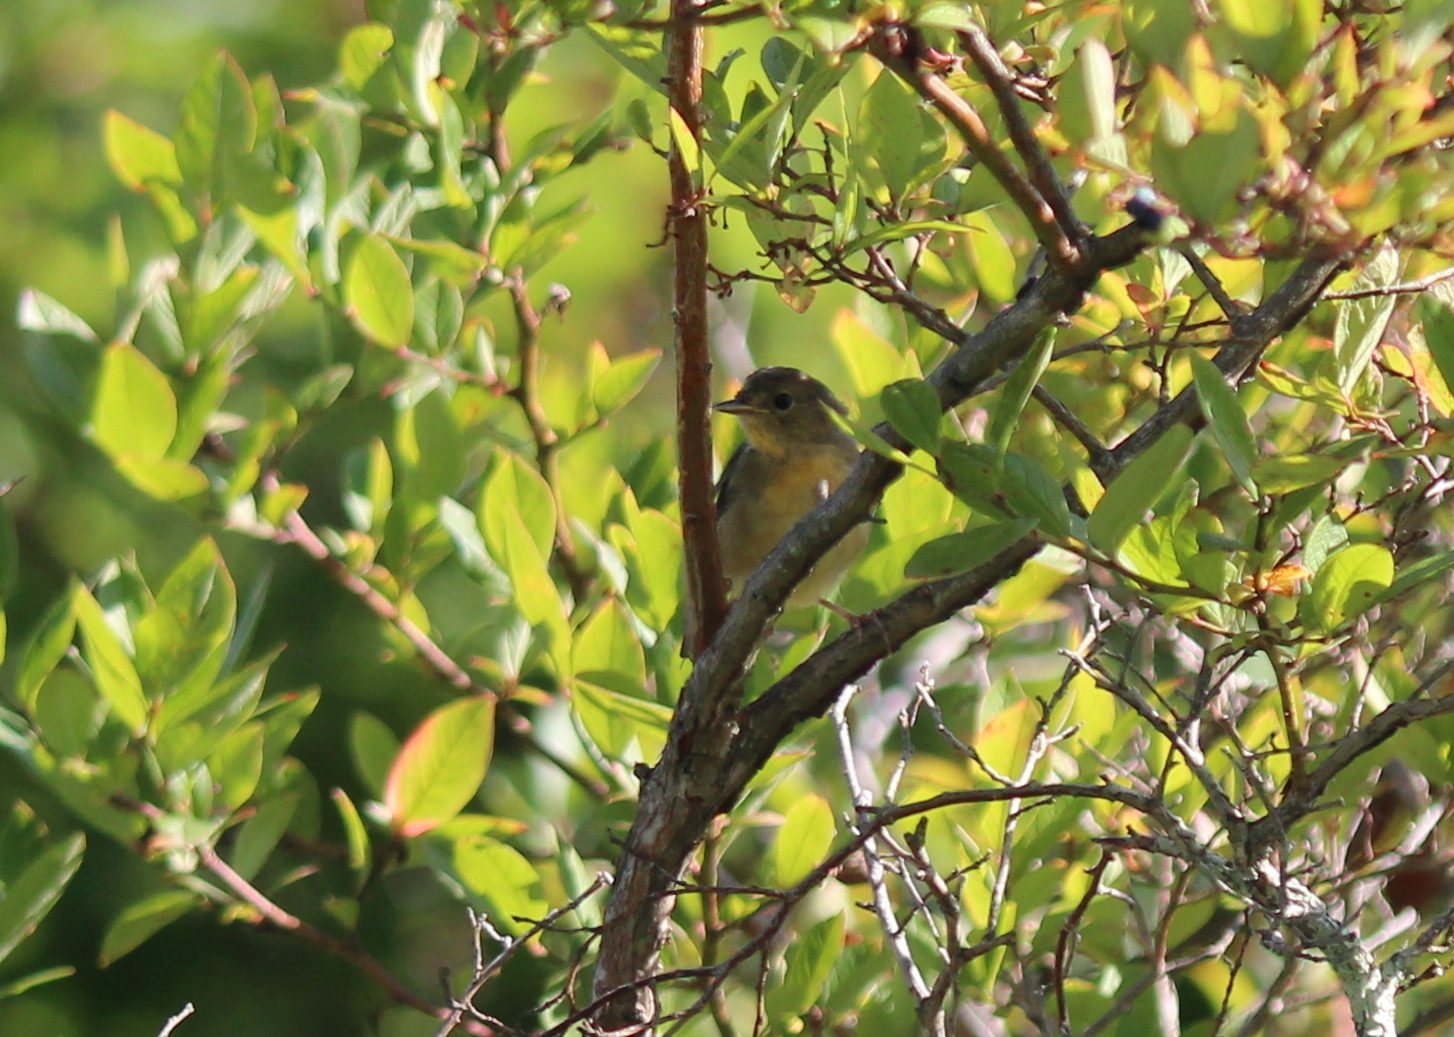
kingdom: Animalia
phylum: Chordata
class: Aves
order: Passeriformes
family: Parulidae
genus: Geothlypis
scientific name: Geothlypis trichas
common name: Common yellowthroat
